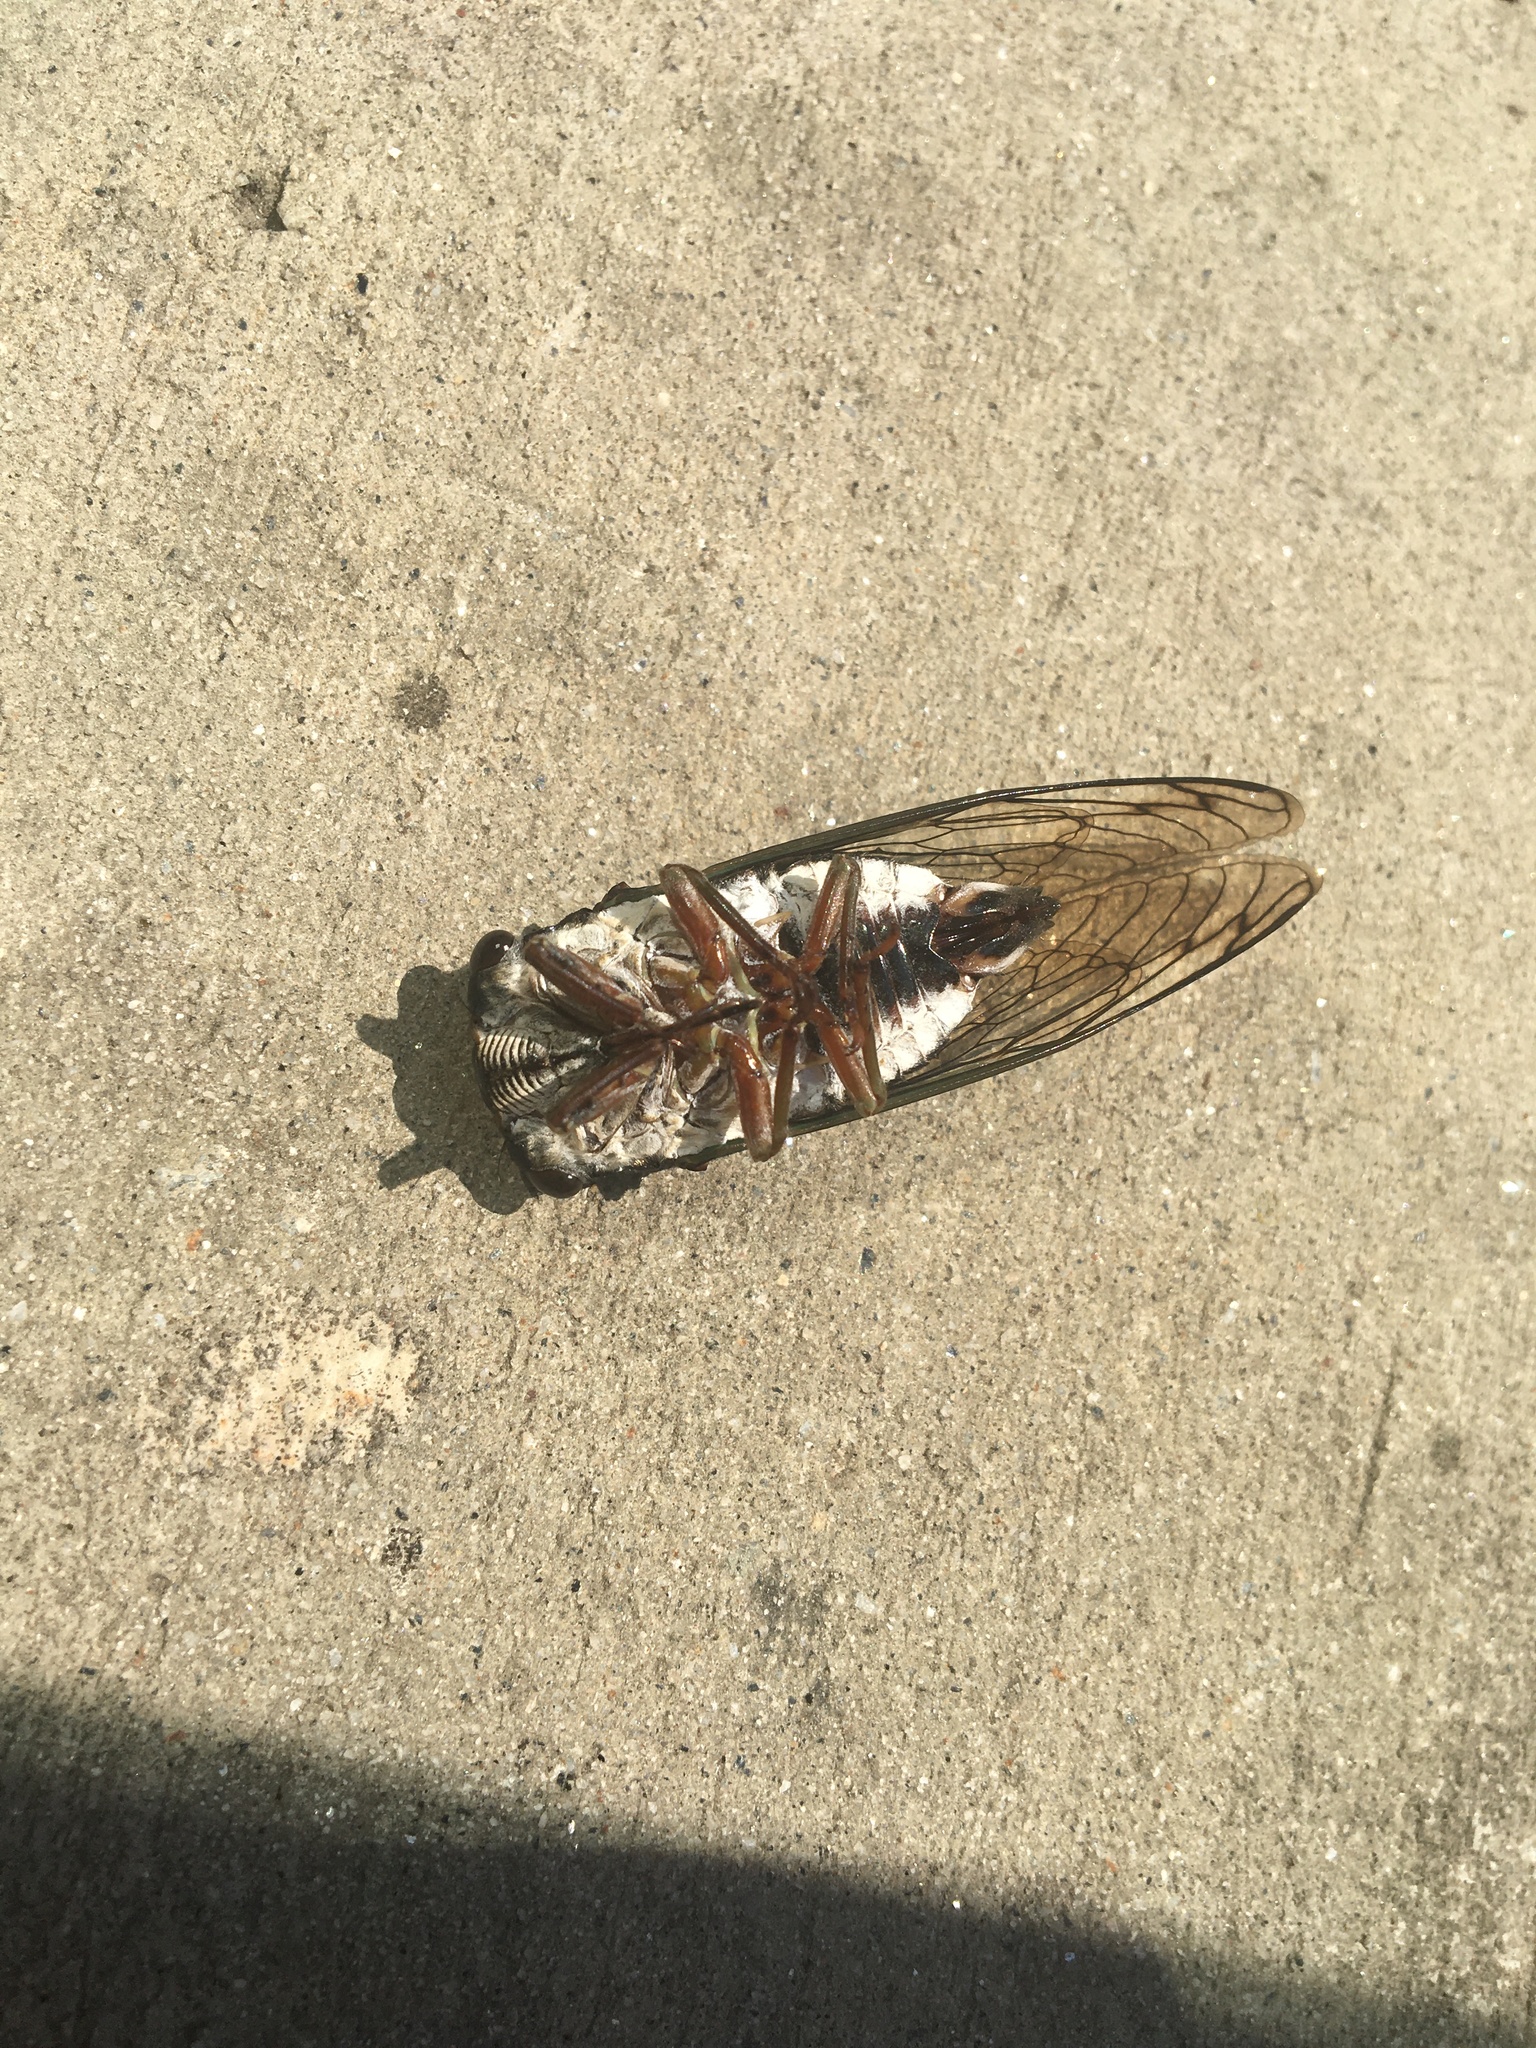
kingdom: Animalia
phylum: Arthropoda
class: Insecta
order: Hemiptera
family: Cicadidae
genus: Neotibicen
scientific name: Neotibicen lyricen
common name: Lyric cicada
